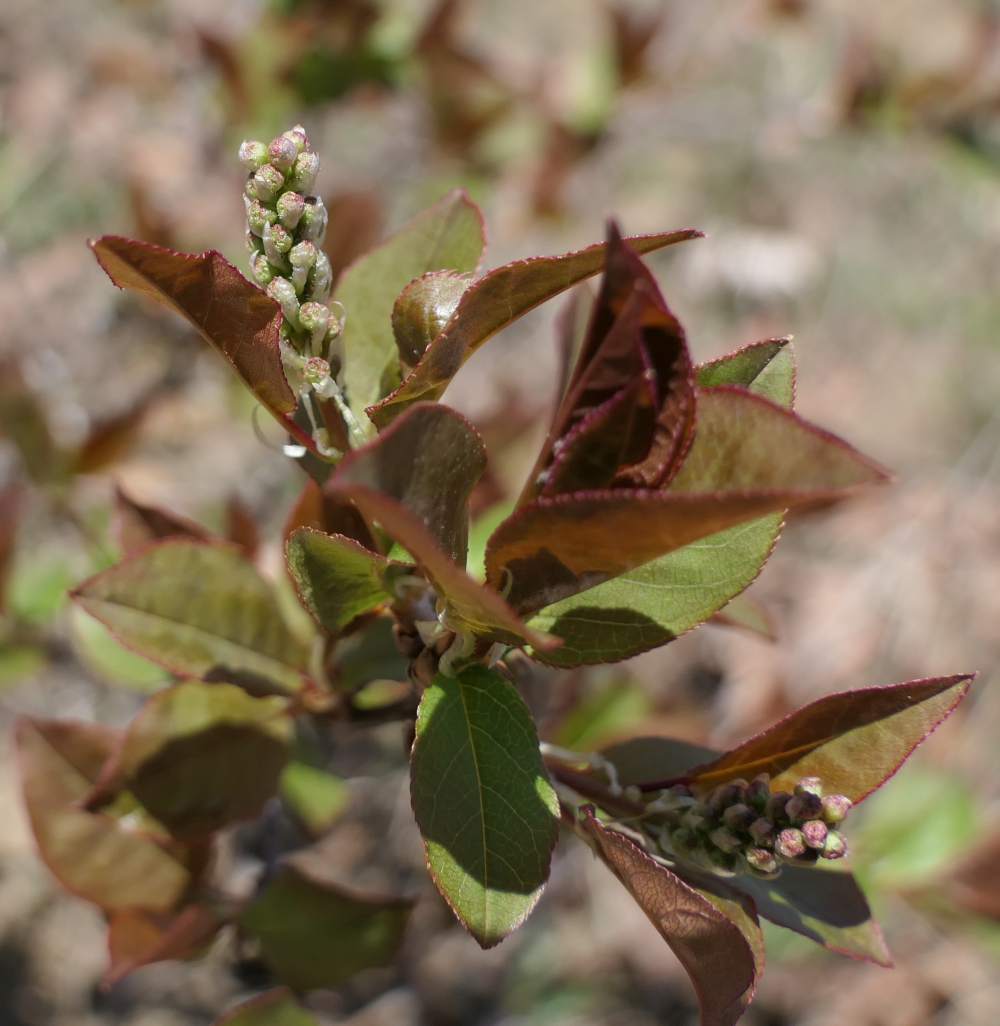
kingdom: Plantae
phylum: Tracheophyta
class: Magnoliopsida
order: Rosales
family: Rosaceae
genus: Prunus
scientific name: Prunus virginiana
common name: Chokecherry
